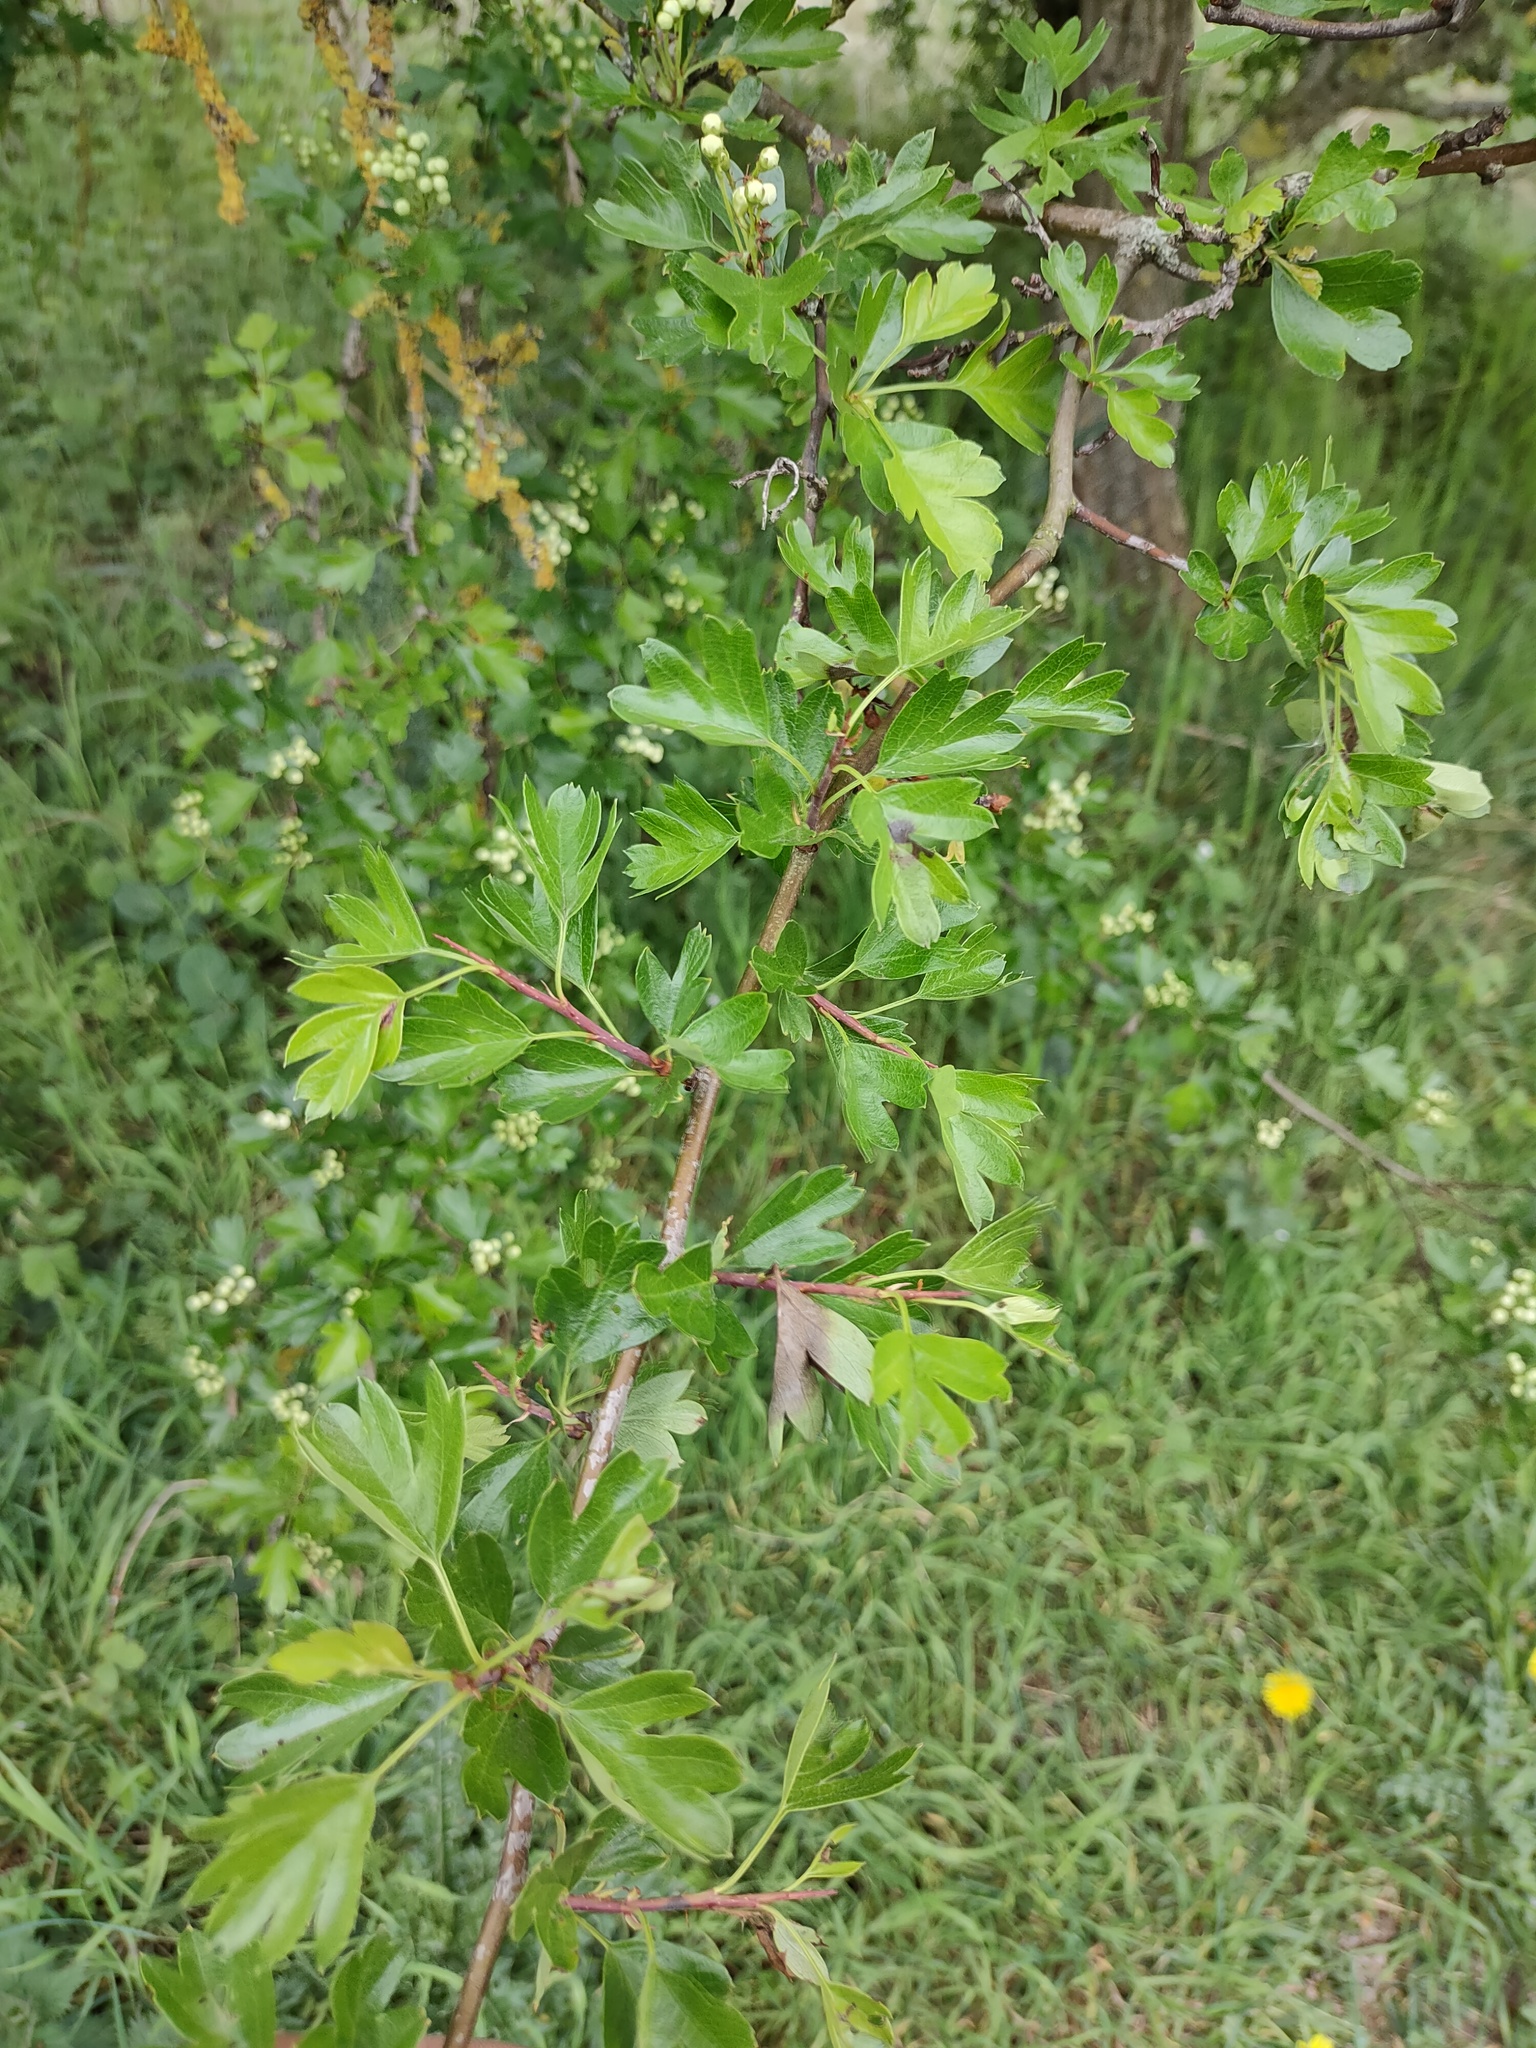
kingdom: Plantae
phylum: Tracheophyta
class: Magnoliopsida
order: Rosales
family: Rosaceae
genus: Crataegus
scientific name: Crataegus monogyna
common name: Hawthorn
